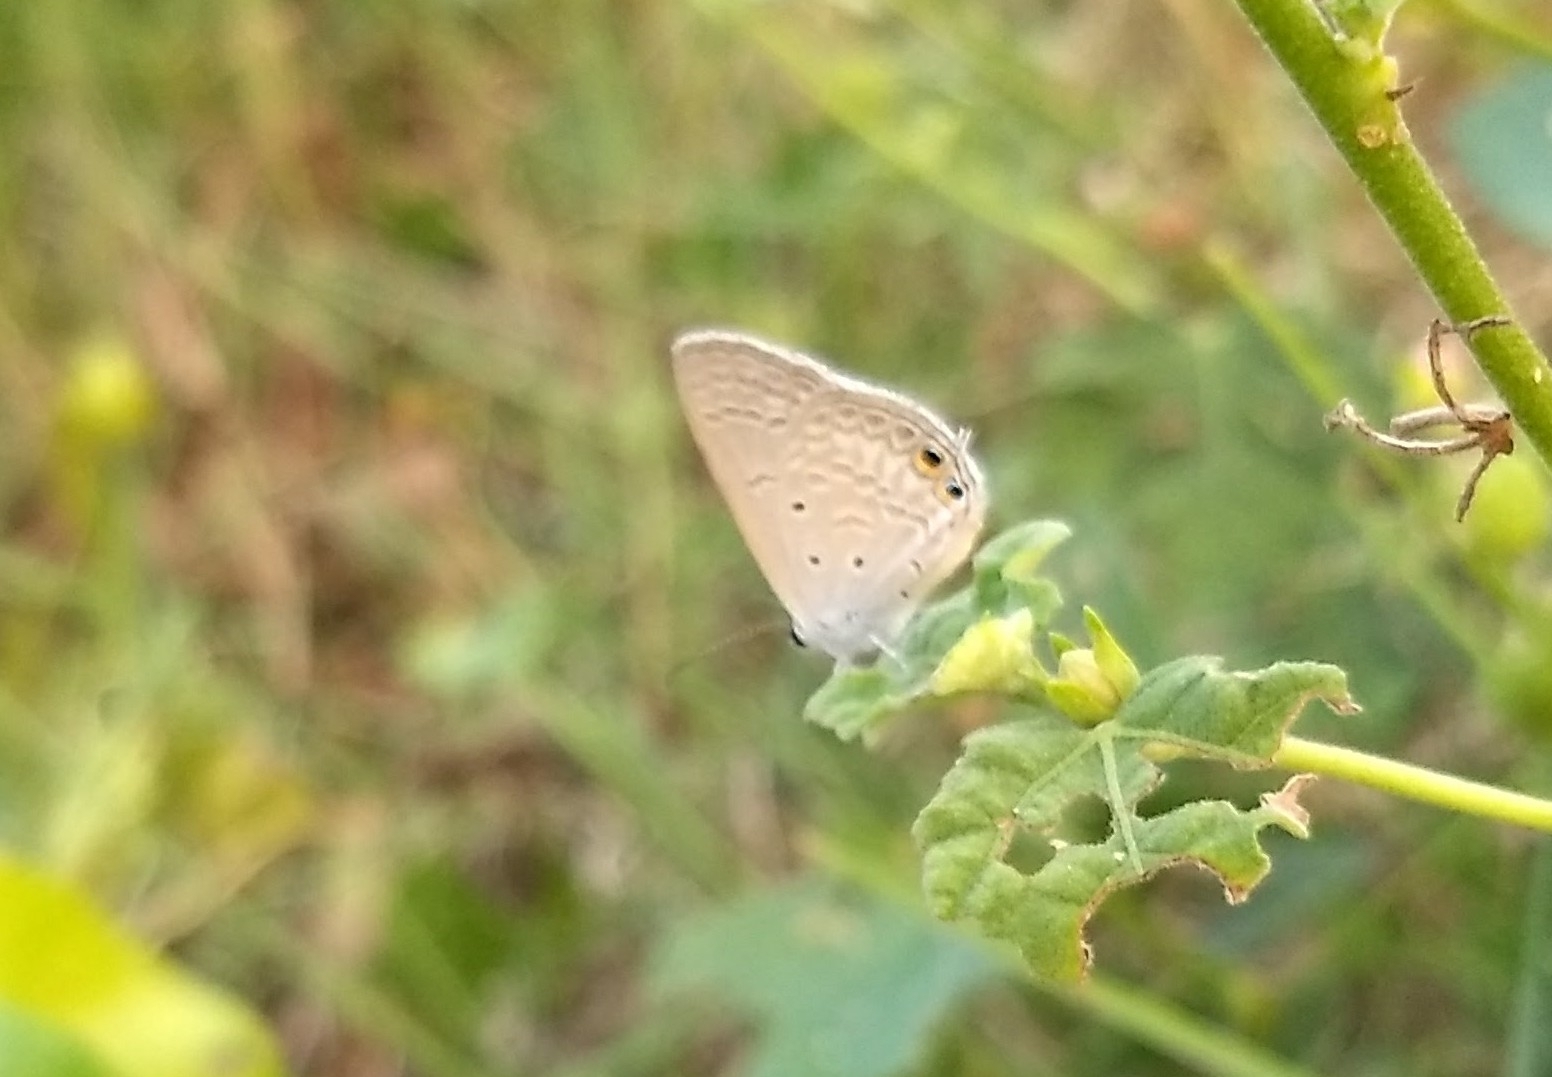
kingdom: Animalia
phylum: Arthropoda
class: Insecta
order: Lepidoptera
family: Lycaenidae
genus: Euchrysops
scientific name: Euchrysops cnejus
